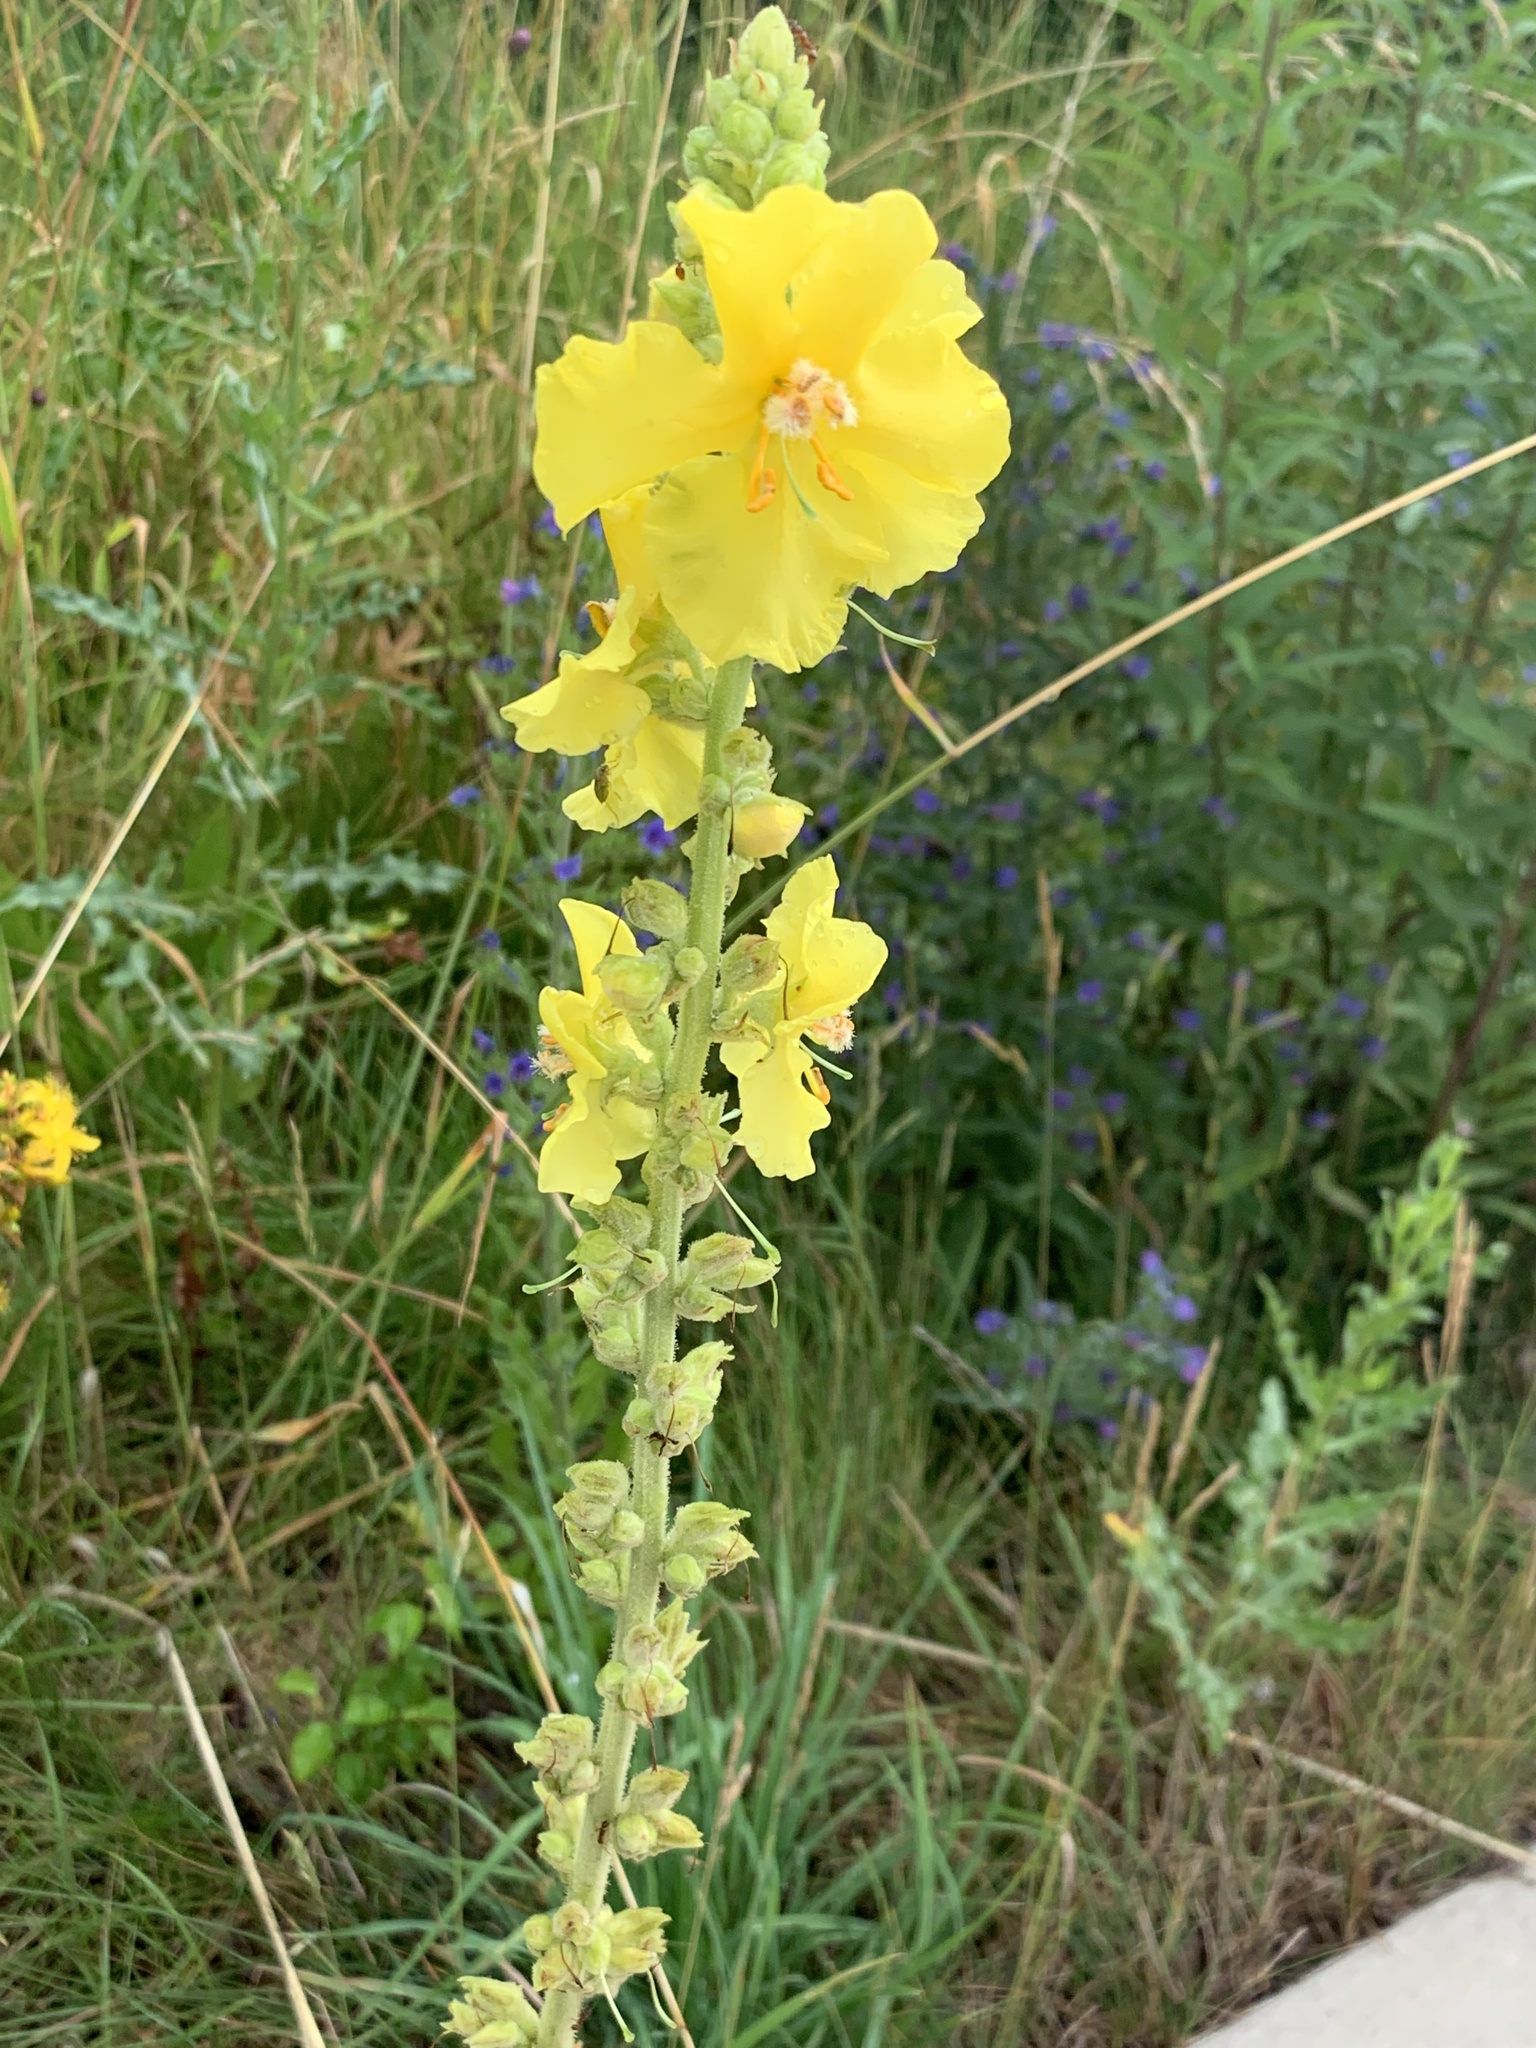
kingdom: Plantae
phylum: Tracheophyta
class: Magnoliopsida
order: Lamiales
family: Scrophulariaceae
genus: Verbascum
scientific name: Verbascum phlomoides
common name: Orange mullein
